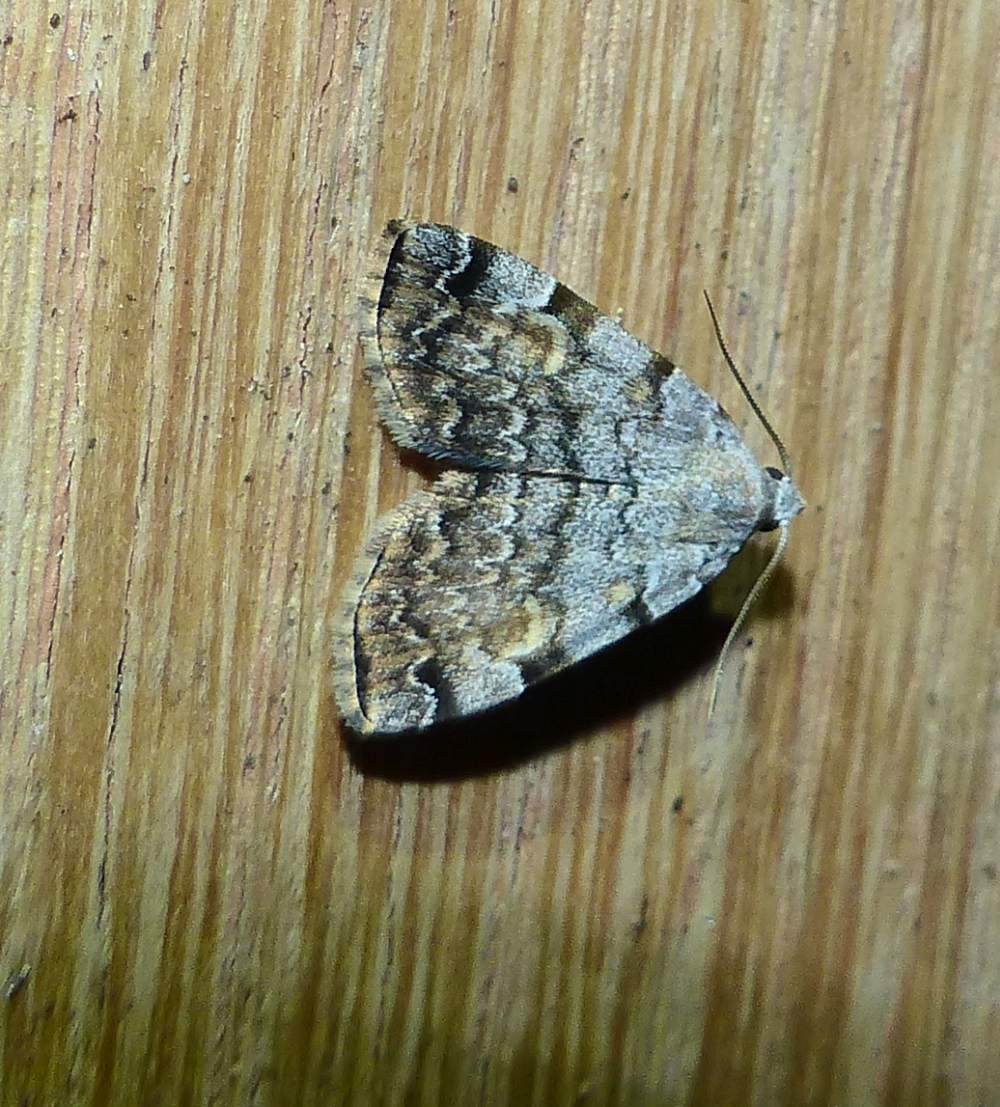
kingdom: Animalia
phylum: Arthropoda
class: Insecta
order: Lepidoptera
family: Erebidae
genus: Idia
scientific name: Idia americalis
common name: American idia moth
